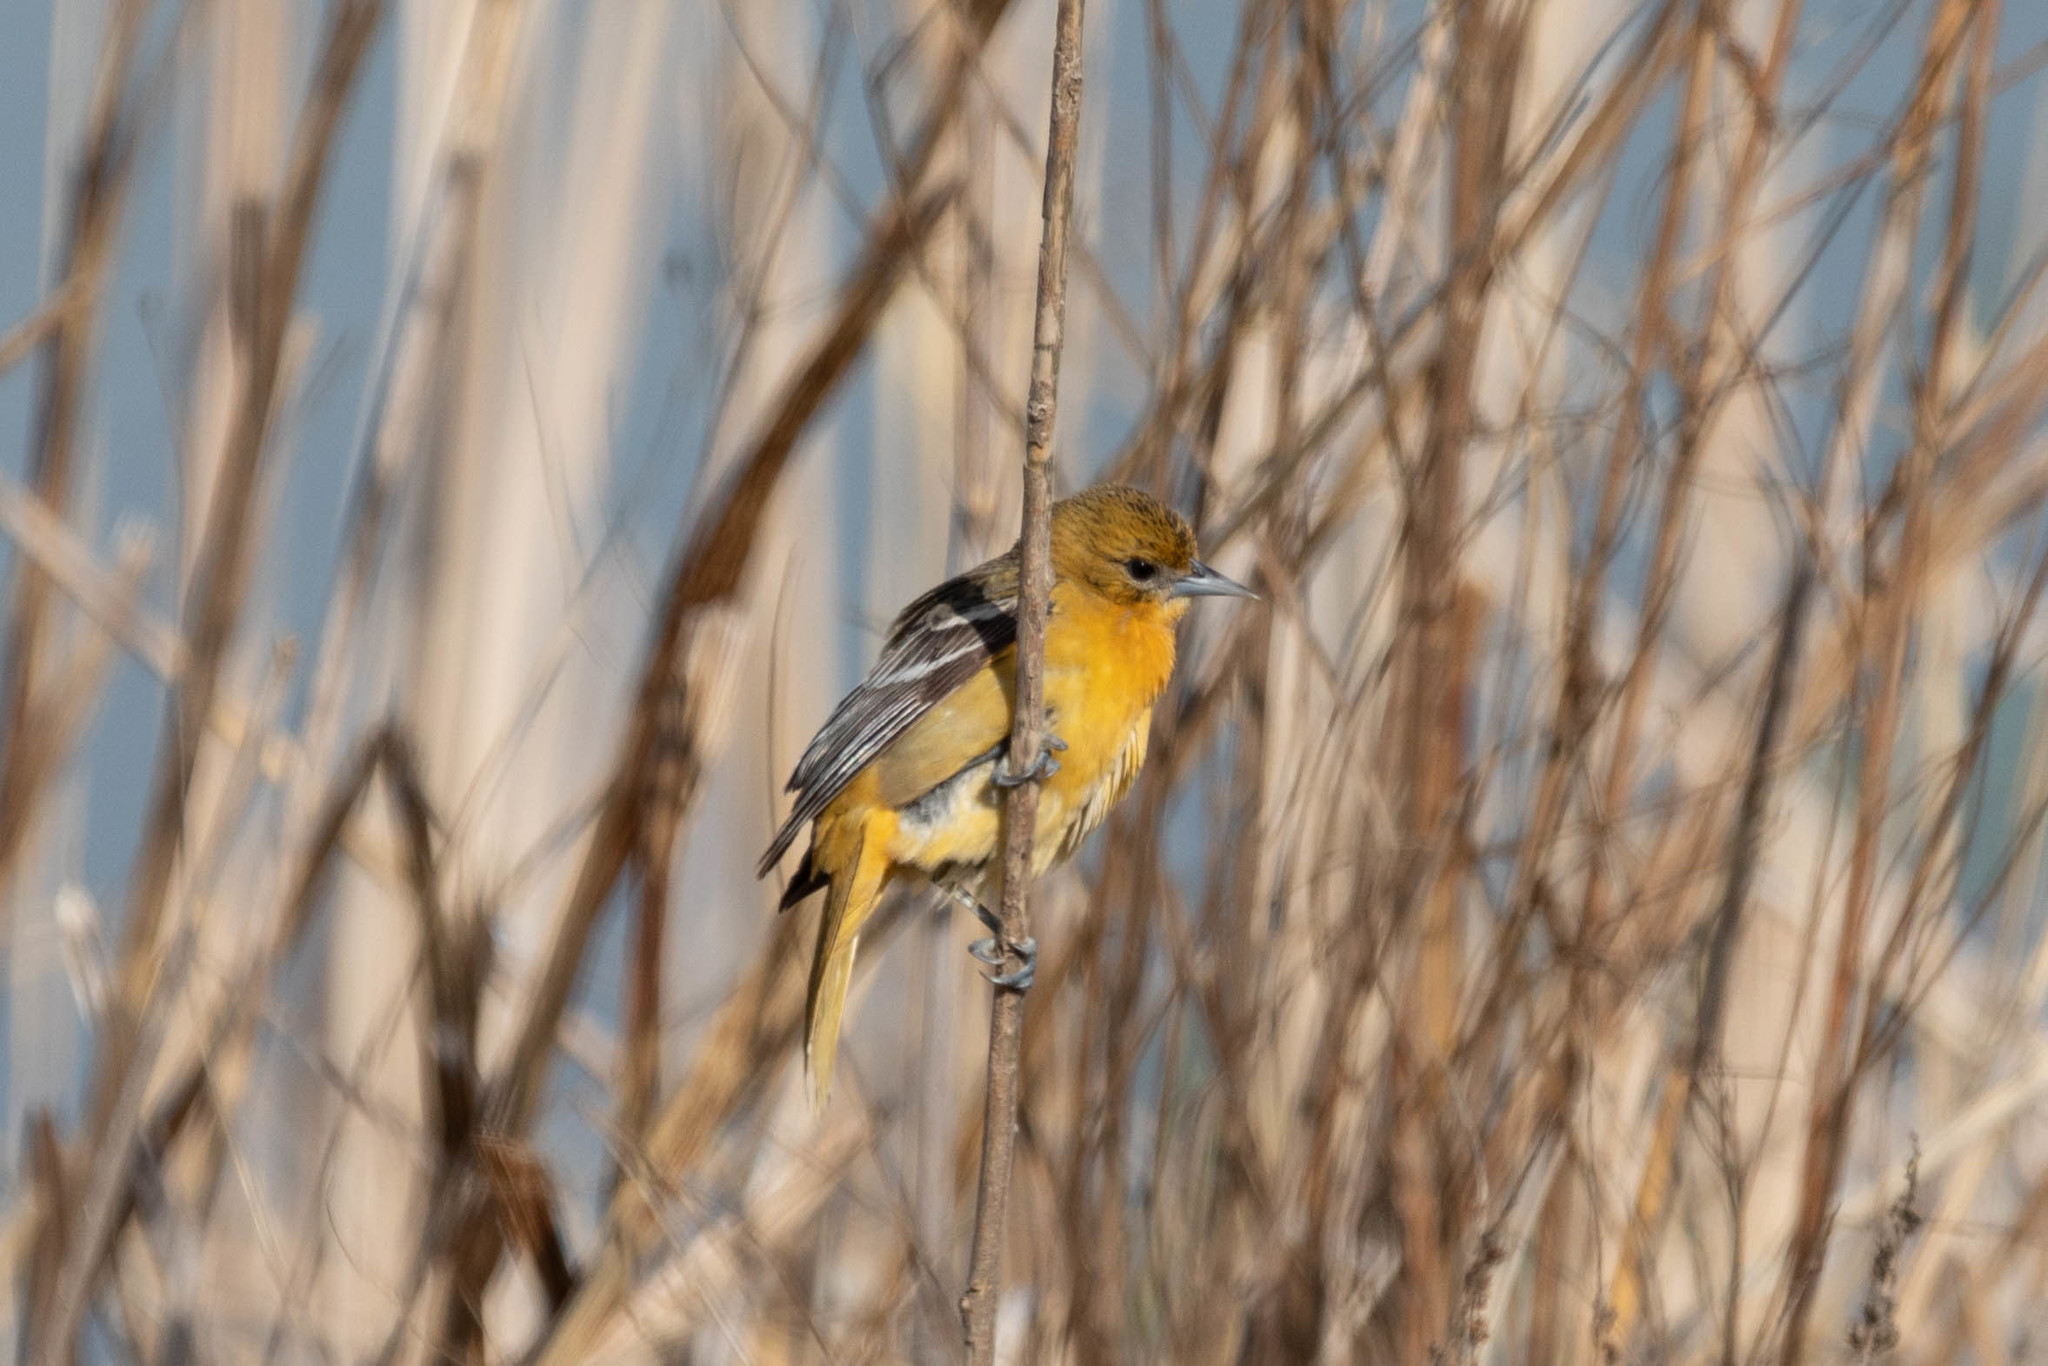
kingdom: Animalia
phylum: Chordata
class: Aves
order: Passeriformes
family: Icteridae
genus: Icterus
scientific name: Icterus galbula
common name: Baltimore oriole
